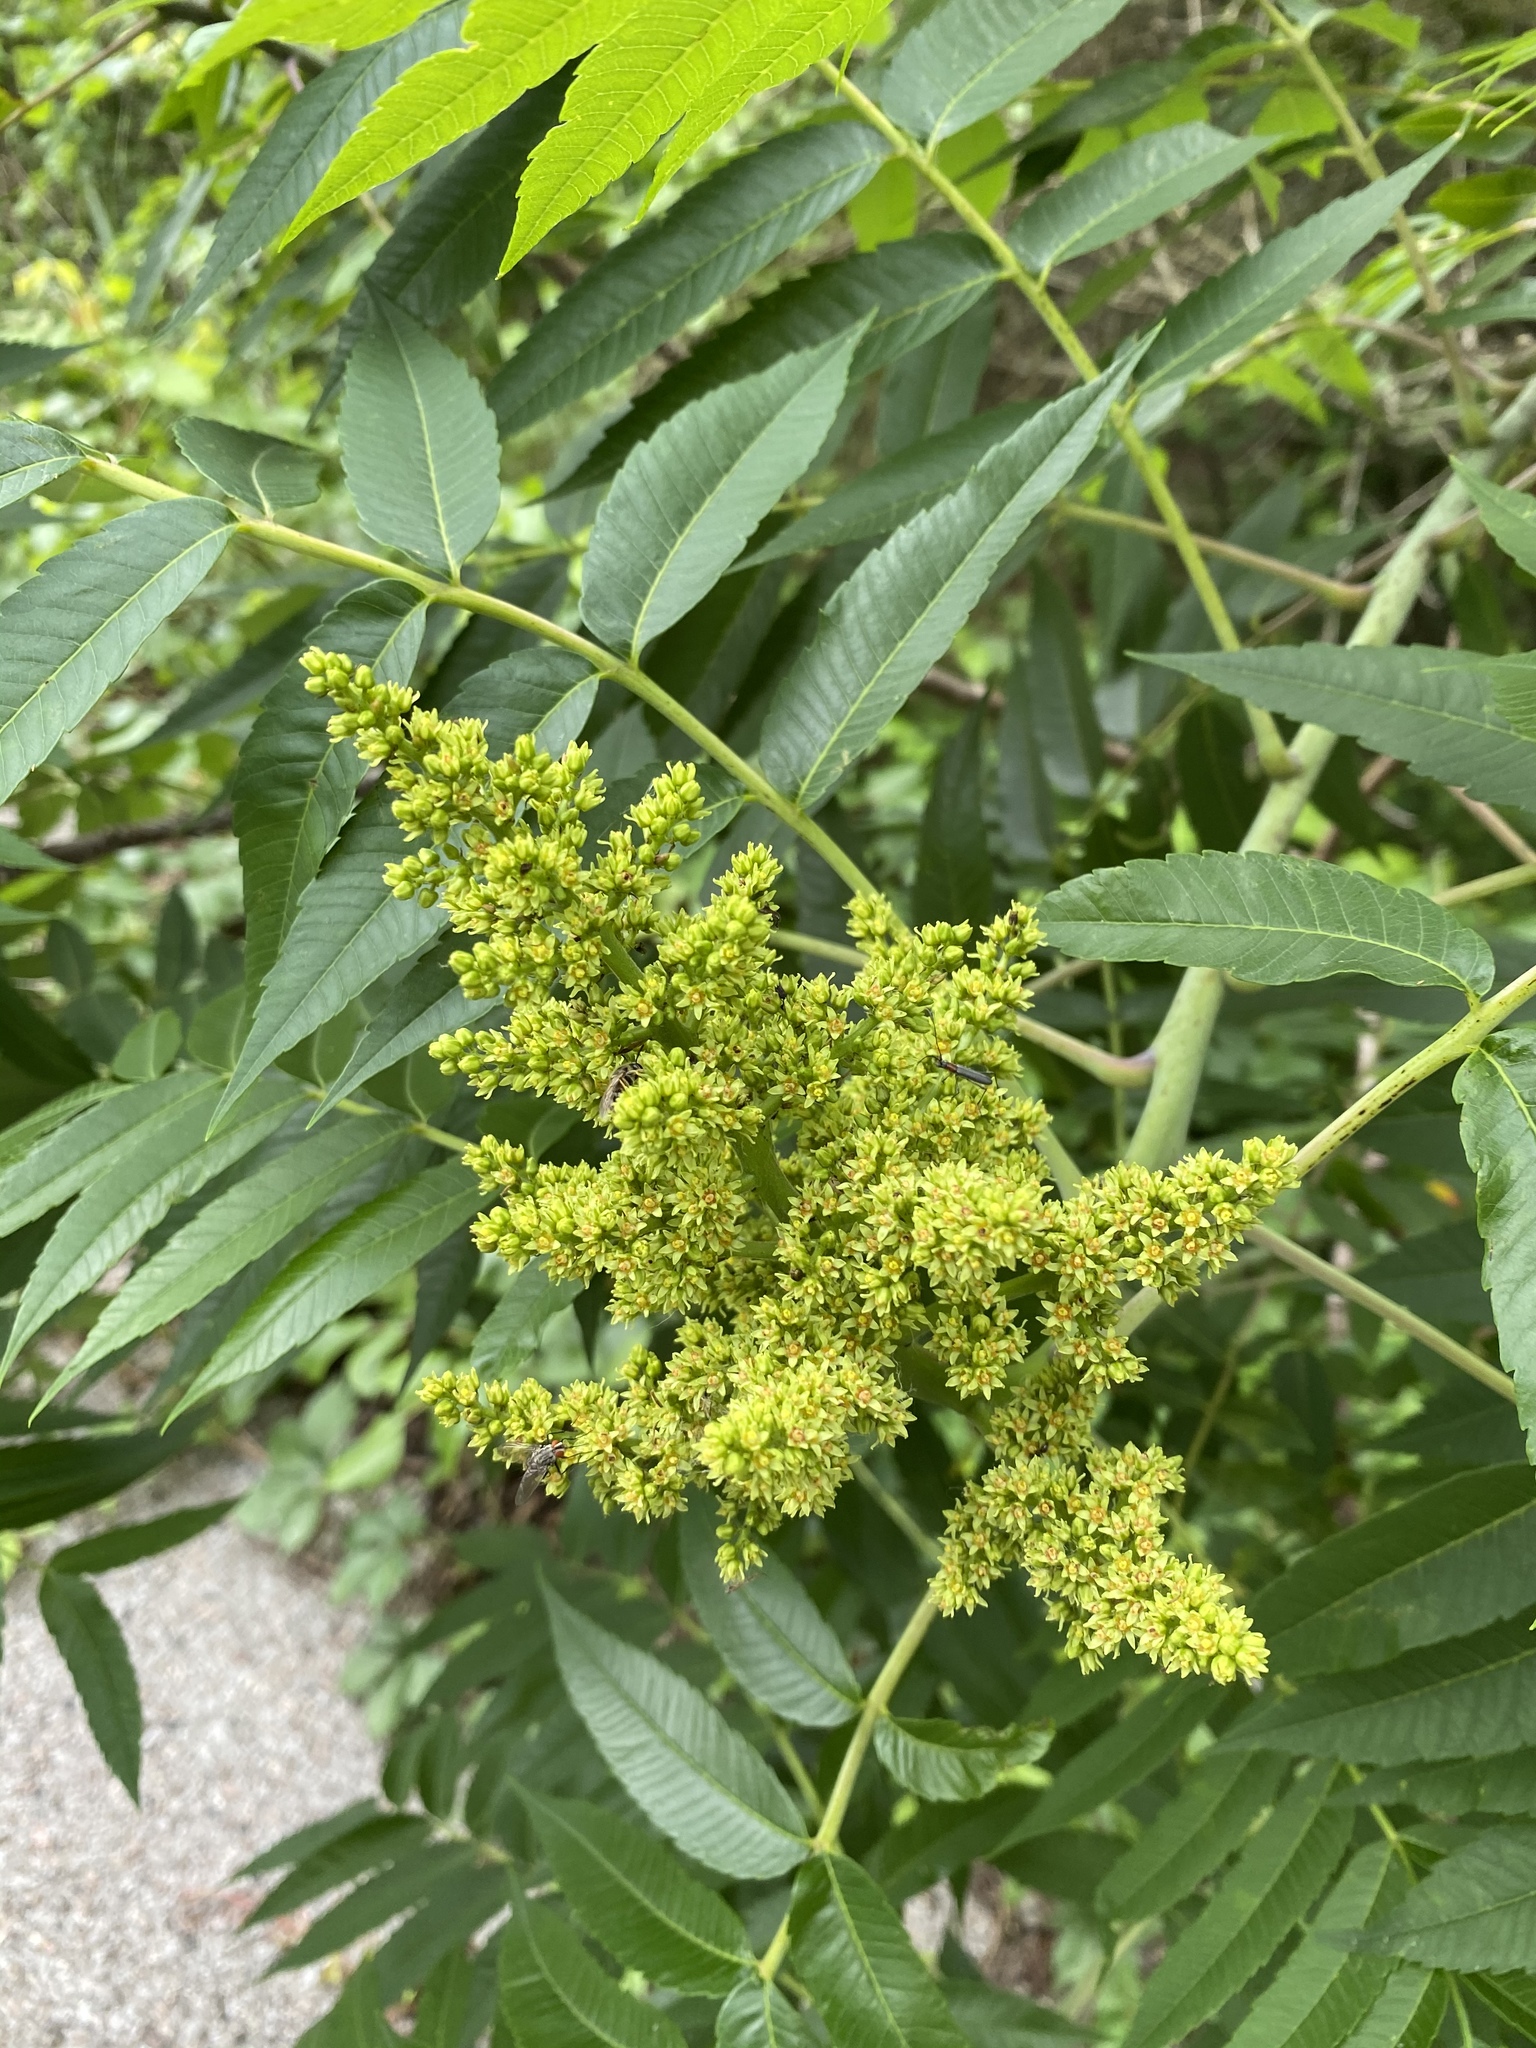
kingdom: Plantae
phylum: Tracheophyta
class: Magnoliopsida
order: Sapindales
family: Anacardiaceae
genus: Rhus
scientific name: Rhus glabra
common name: Scarlet sumac
